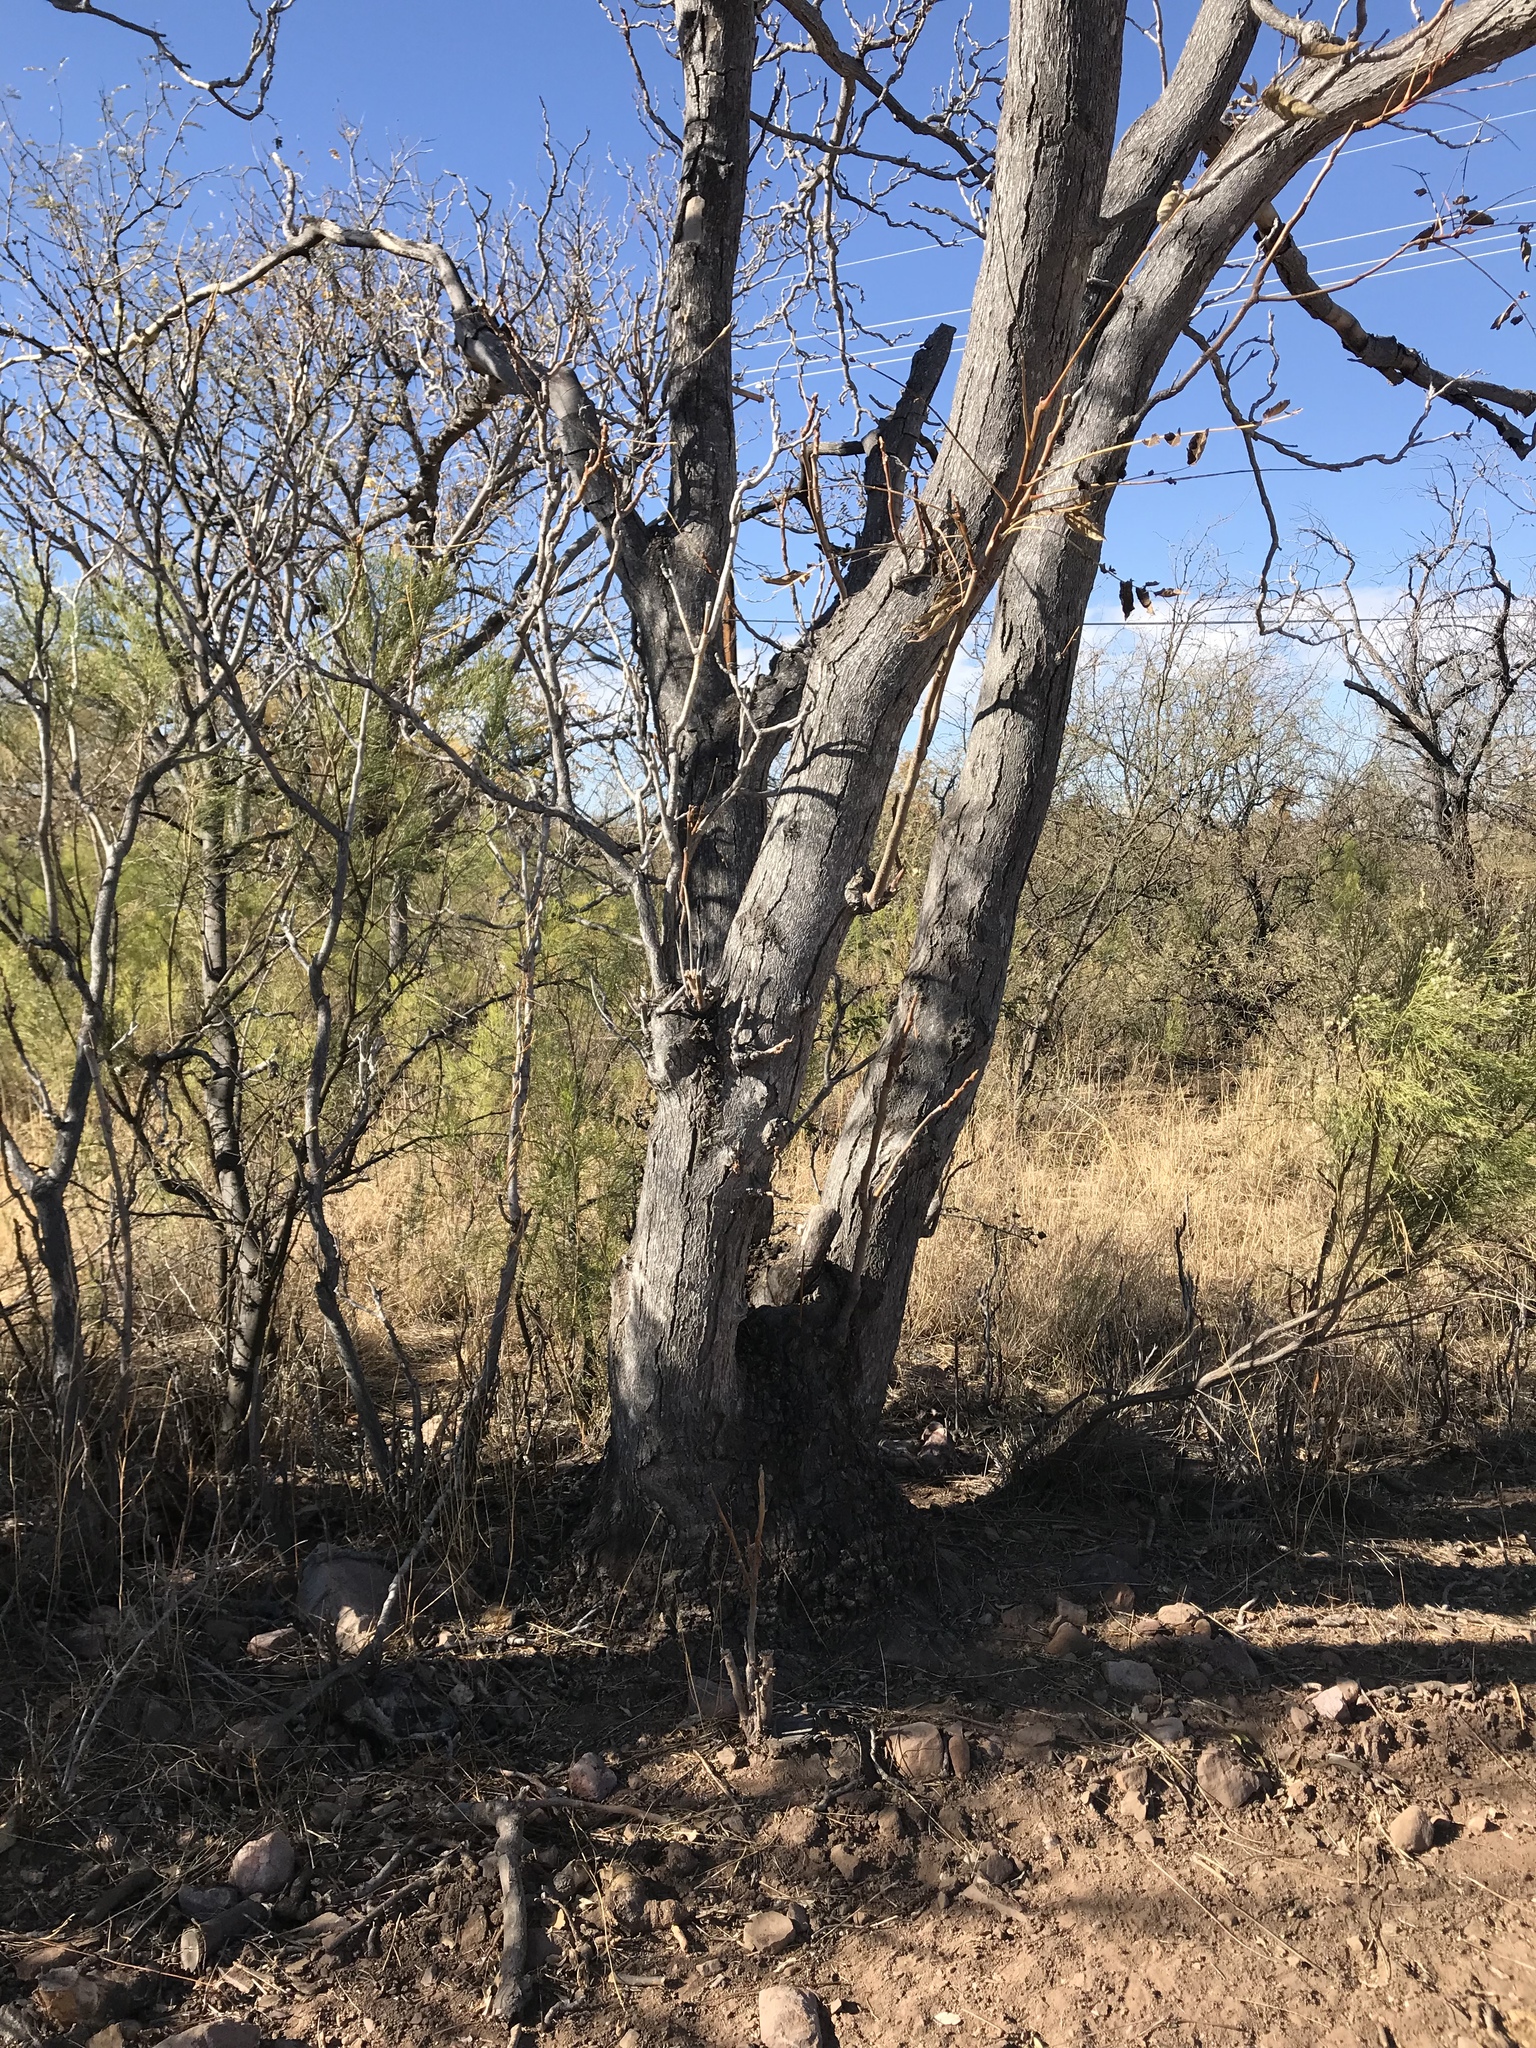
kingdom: Plantae
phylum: Tracheophyta
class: Magnoliopsida
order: Fagales
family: Juglandaceae
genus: Juglans
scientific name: Juglans major
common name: Arizona walnut
